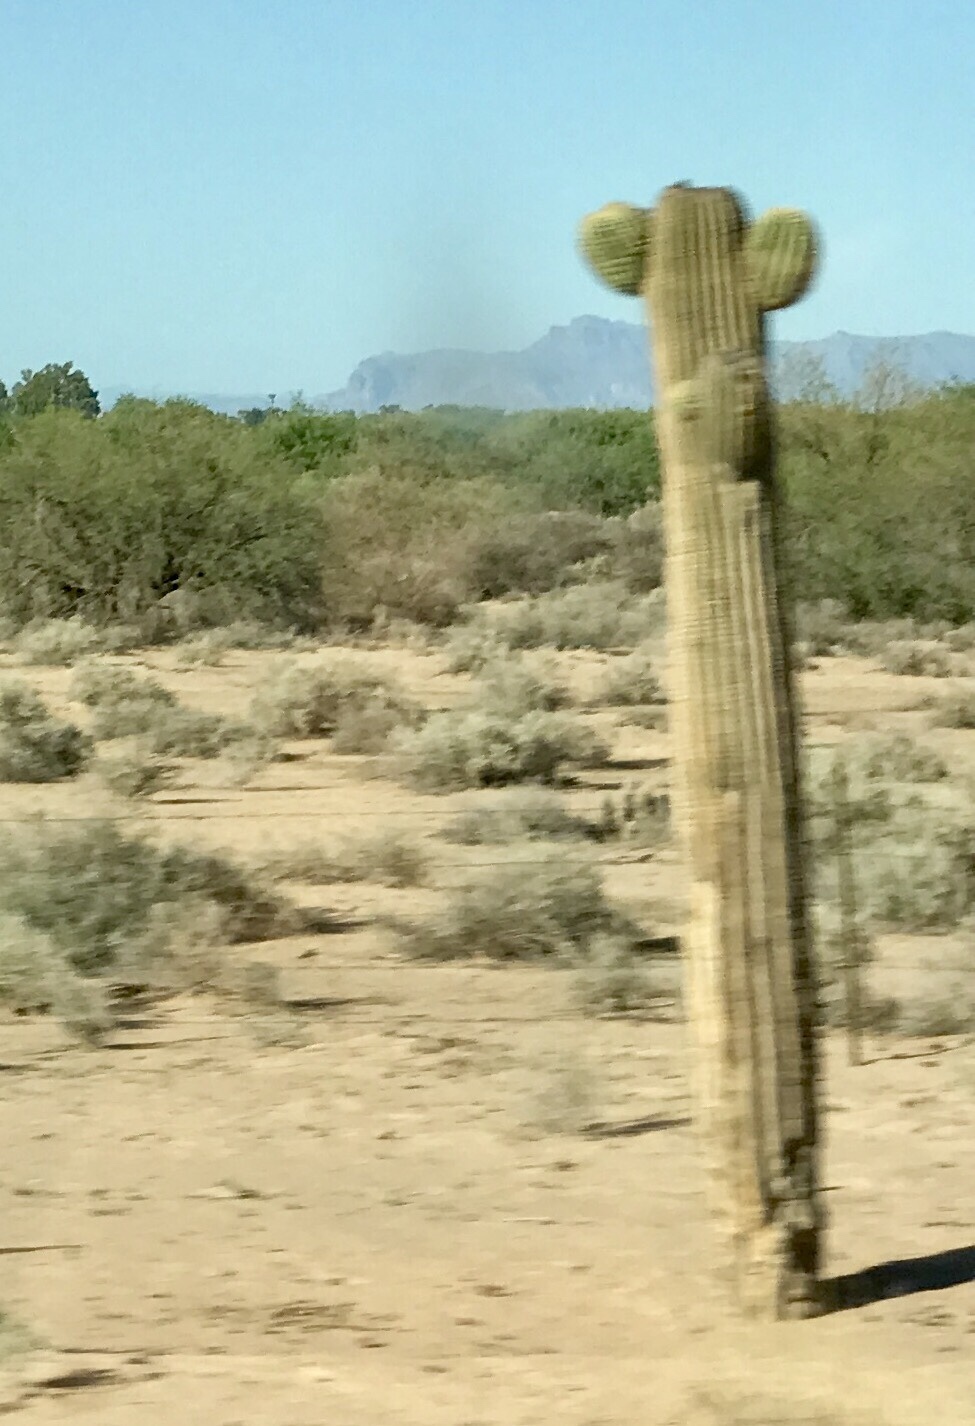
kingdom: Plantae
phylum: Tracheophyta
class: Magnoliopsida
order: Caryophyllales
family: Cactaceae
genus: Carnegiea
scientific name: Carnegiea gigantea
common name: Saguaro
